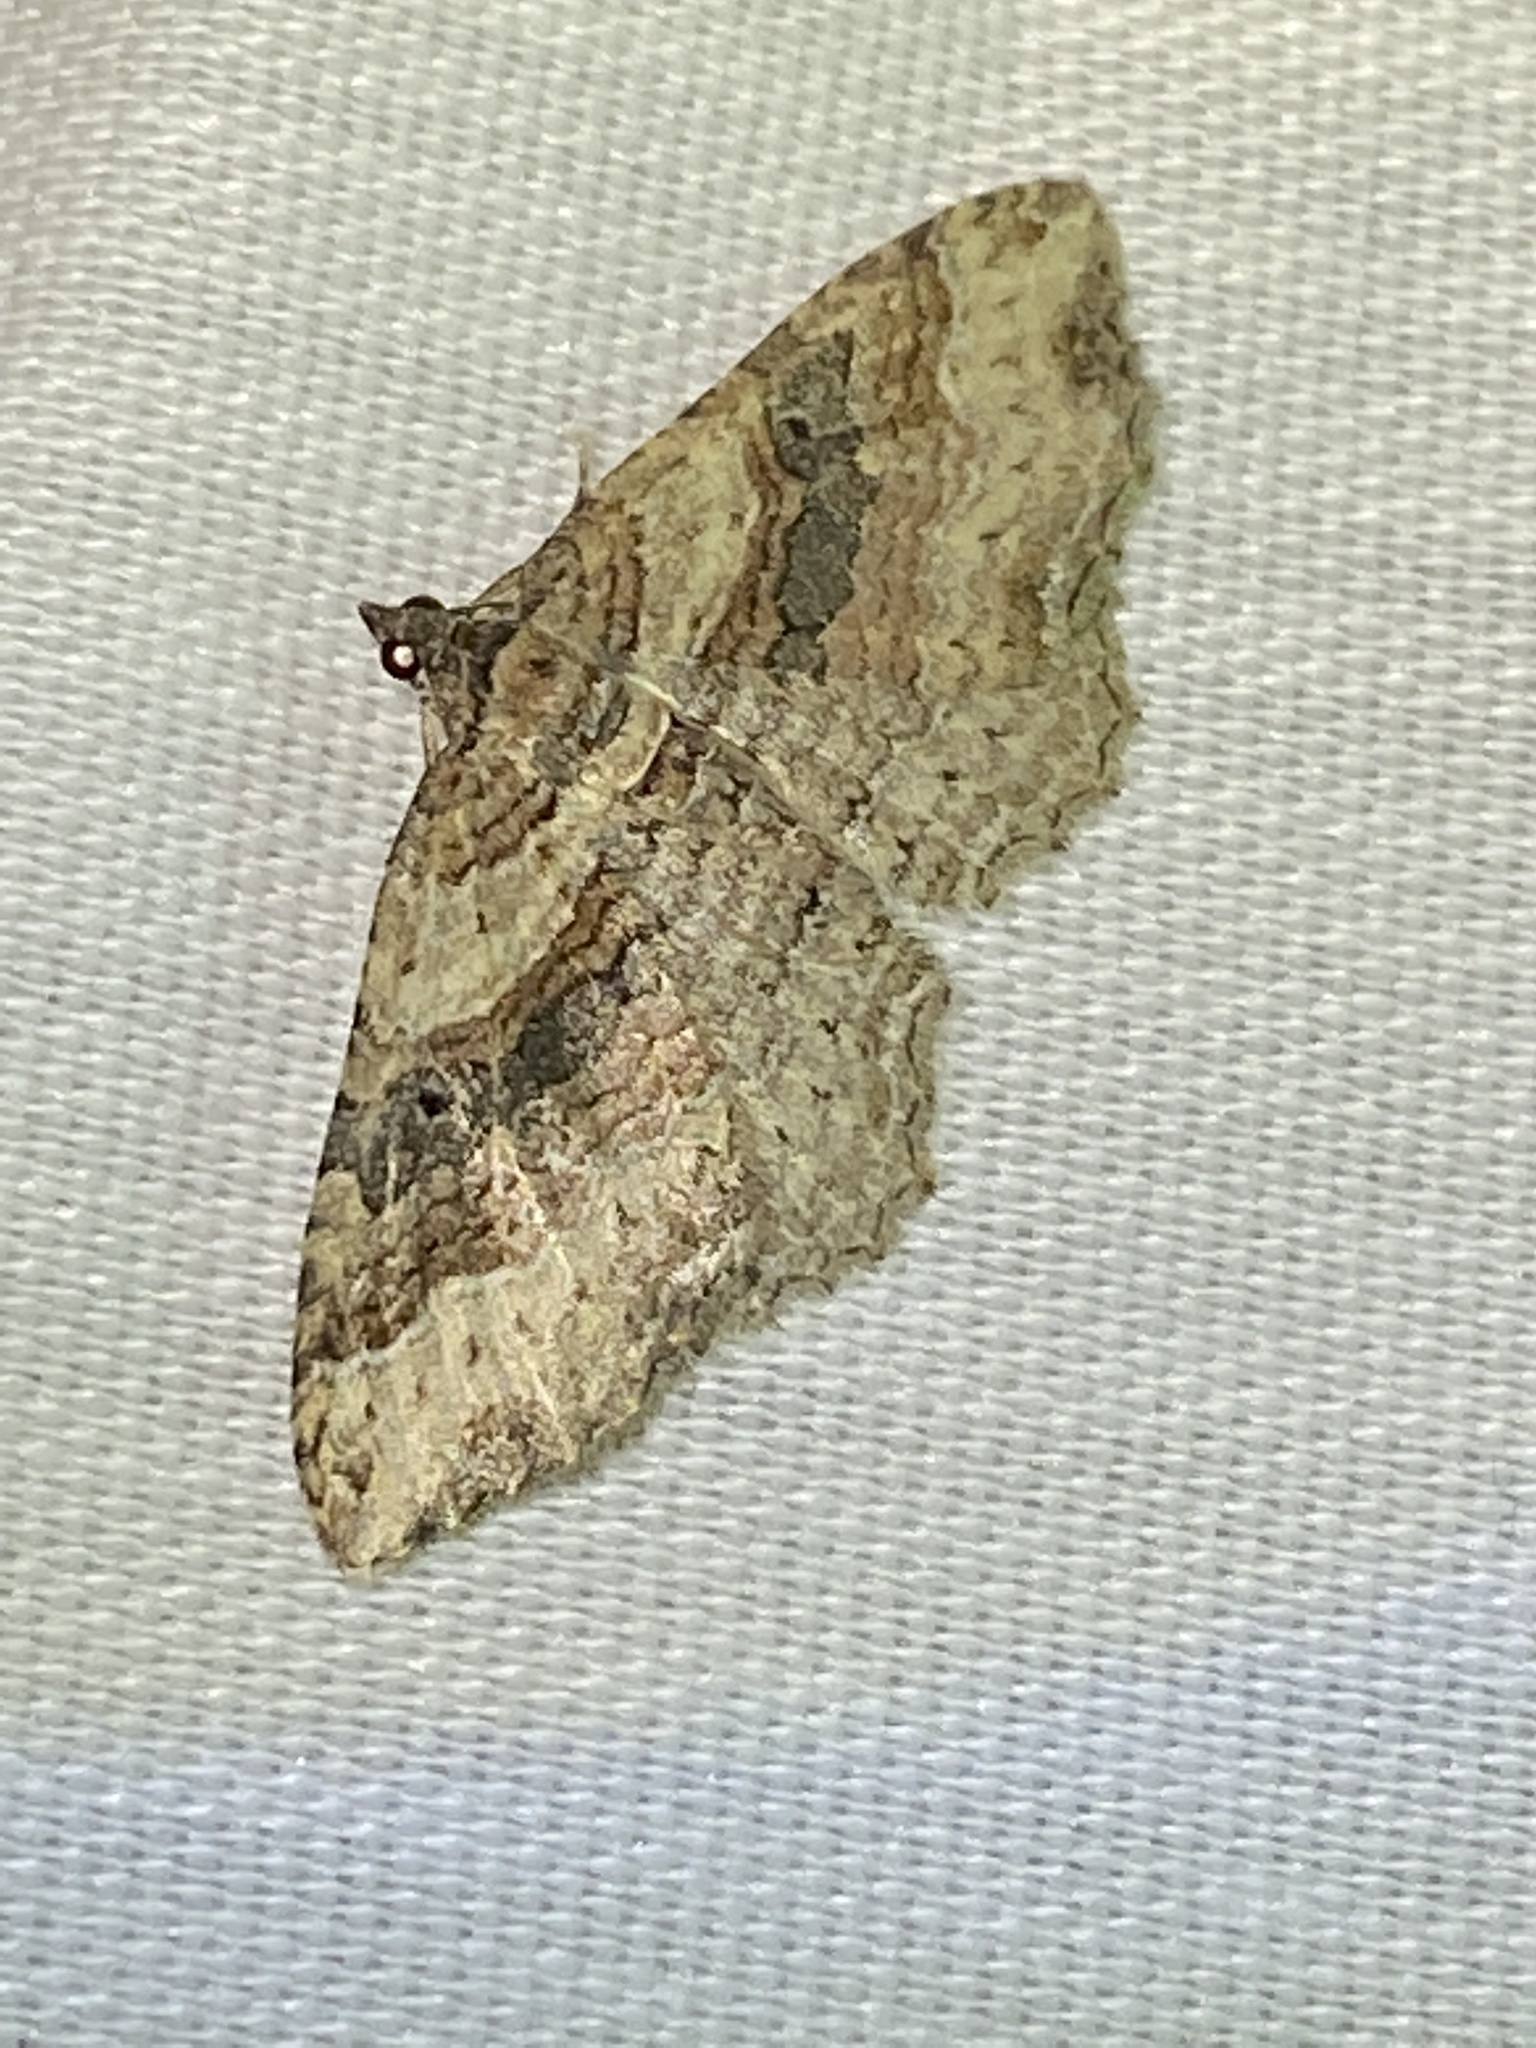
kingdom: Animalia
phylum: Arthropoda
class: Insecta
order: Lepidoptera
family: Geometridae
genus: Costaconvexa
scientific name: Costaconvexa centrostrigaria
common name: Bent-line carpet
